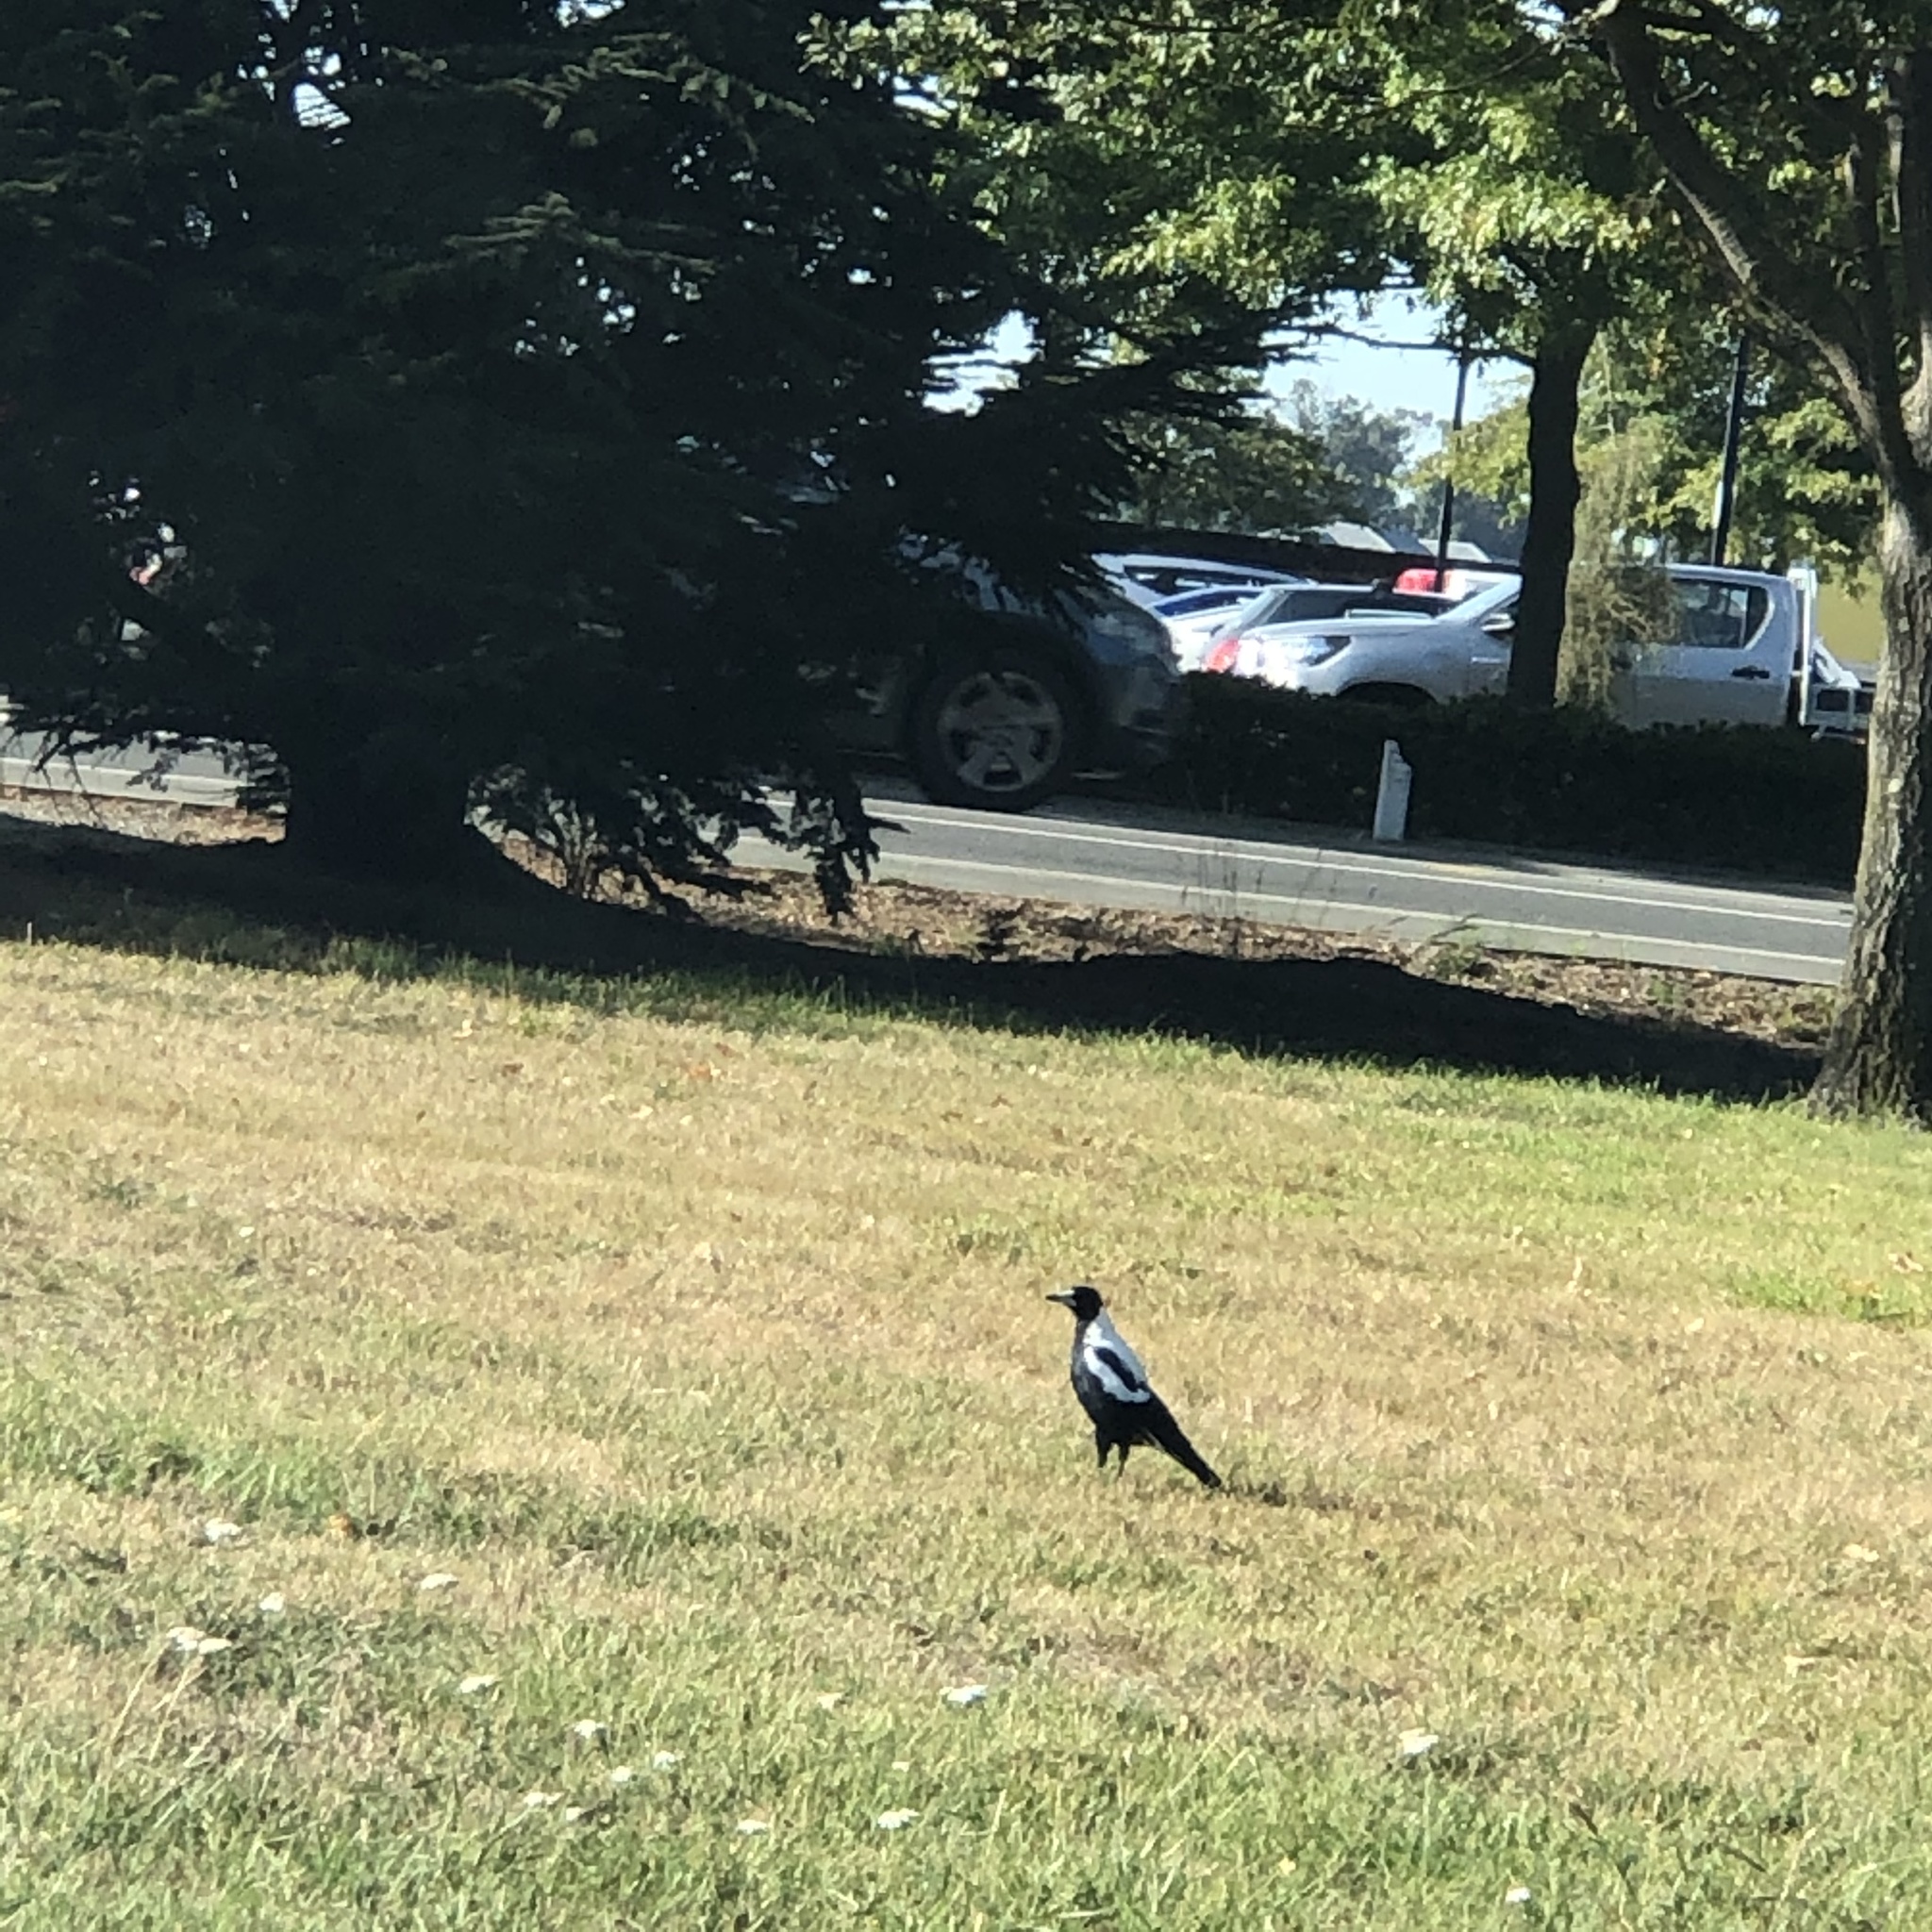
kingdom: Animalia
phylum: Chordata
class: Aves
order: Passeriformes
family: Cracticidae
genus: Gymnorhina
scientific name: Gymnorhina tibicen
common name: Australian magpie
